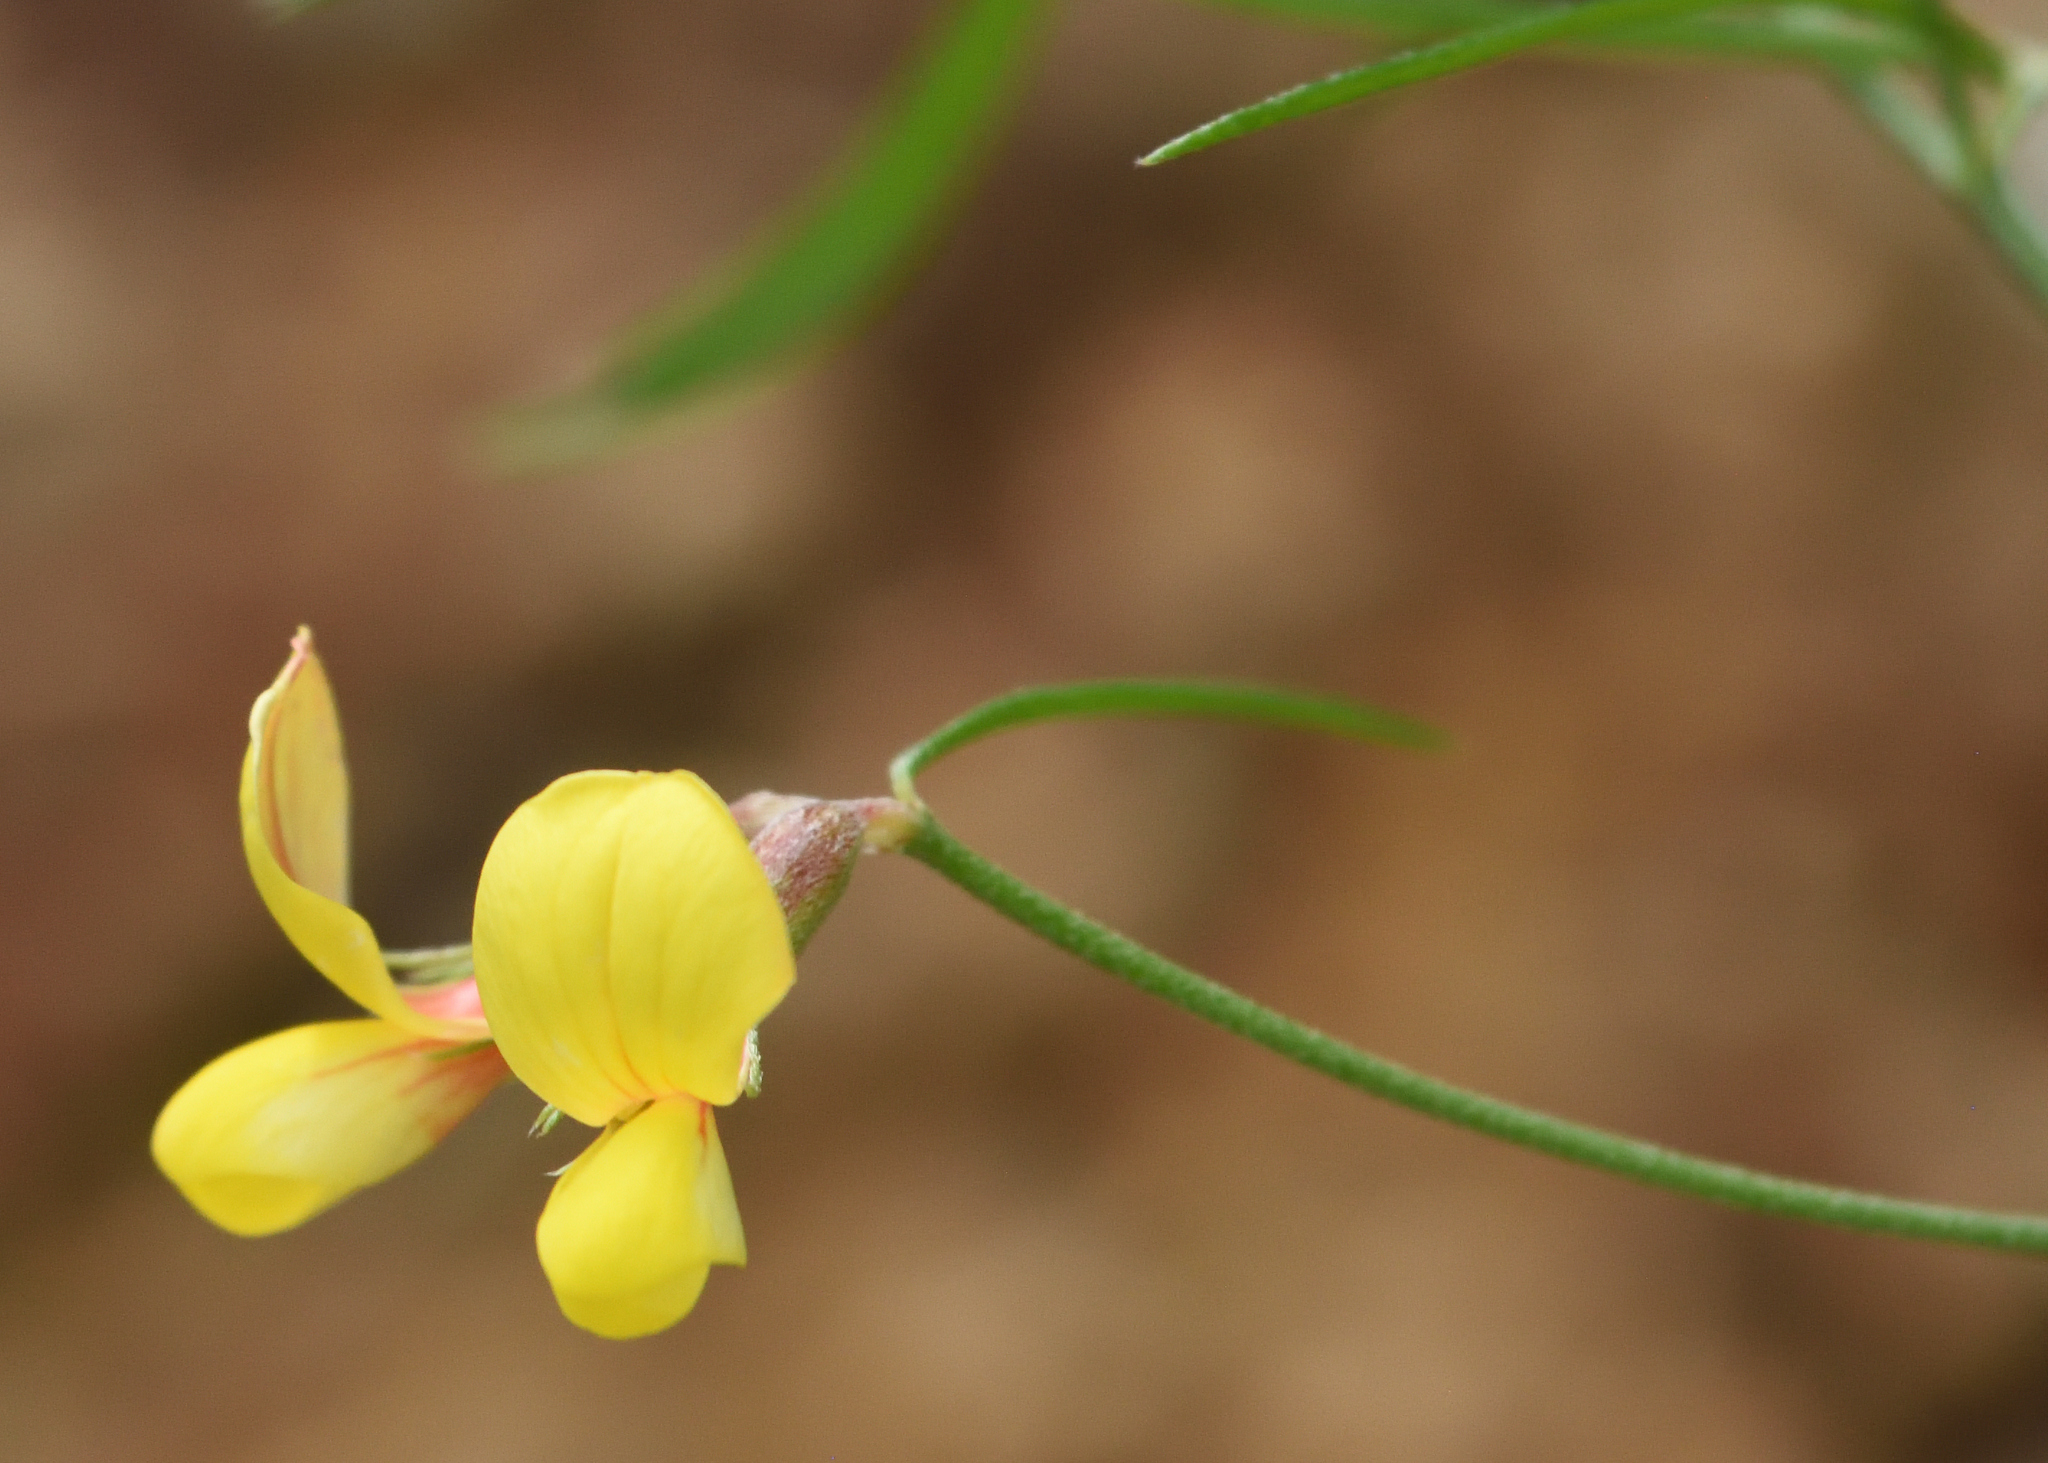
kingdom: Plantae
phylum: Tracheophyta
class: Magnoliopsida
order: Fabales
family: Fabaceae
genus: Acmispon
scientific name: Acmispon oroboides
